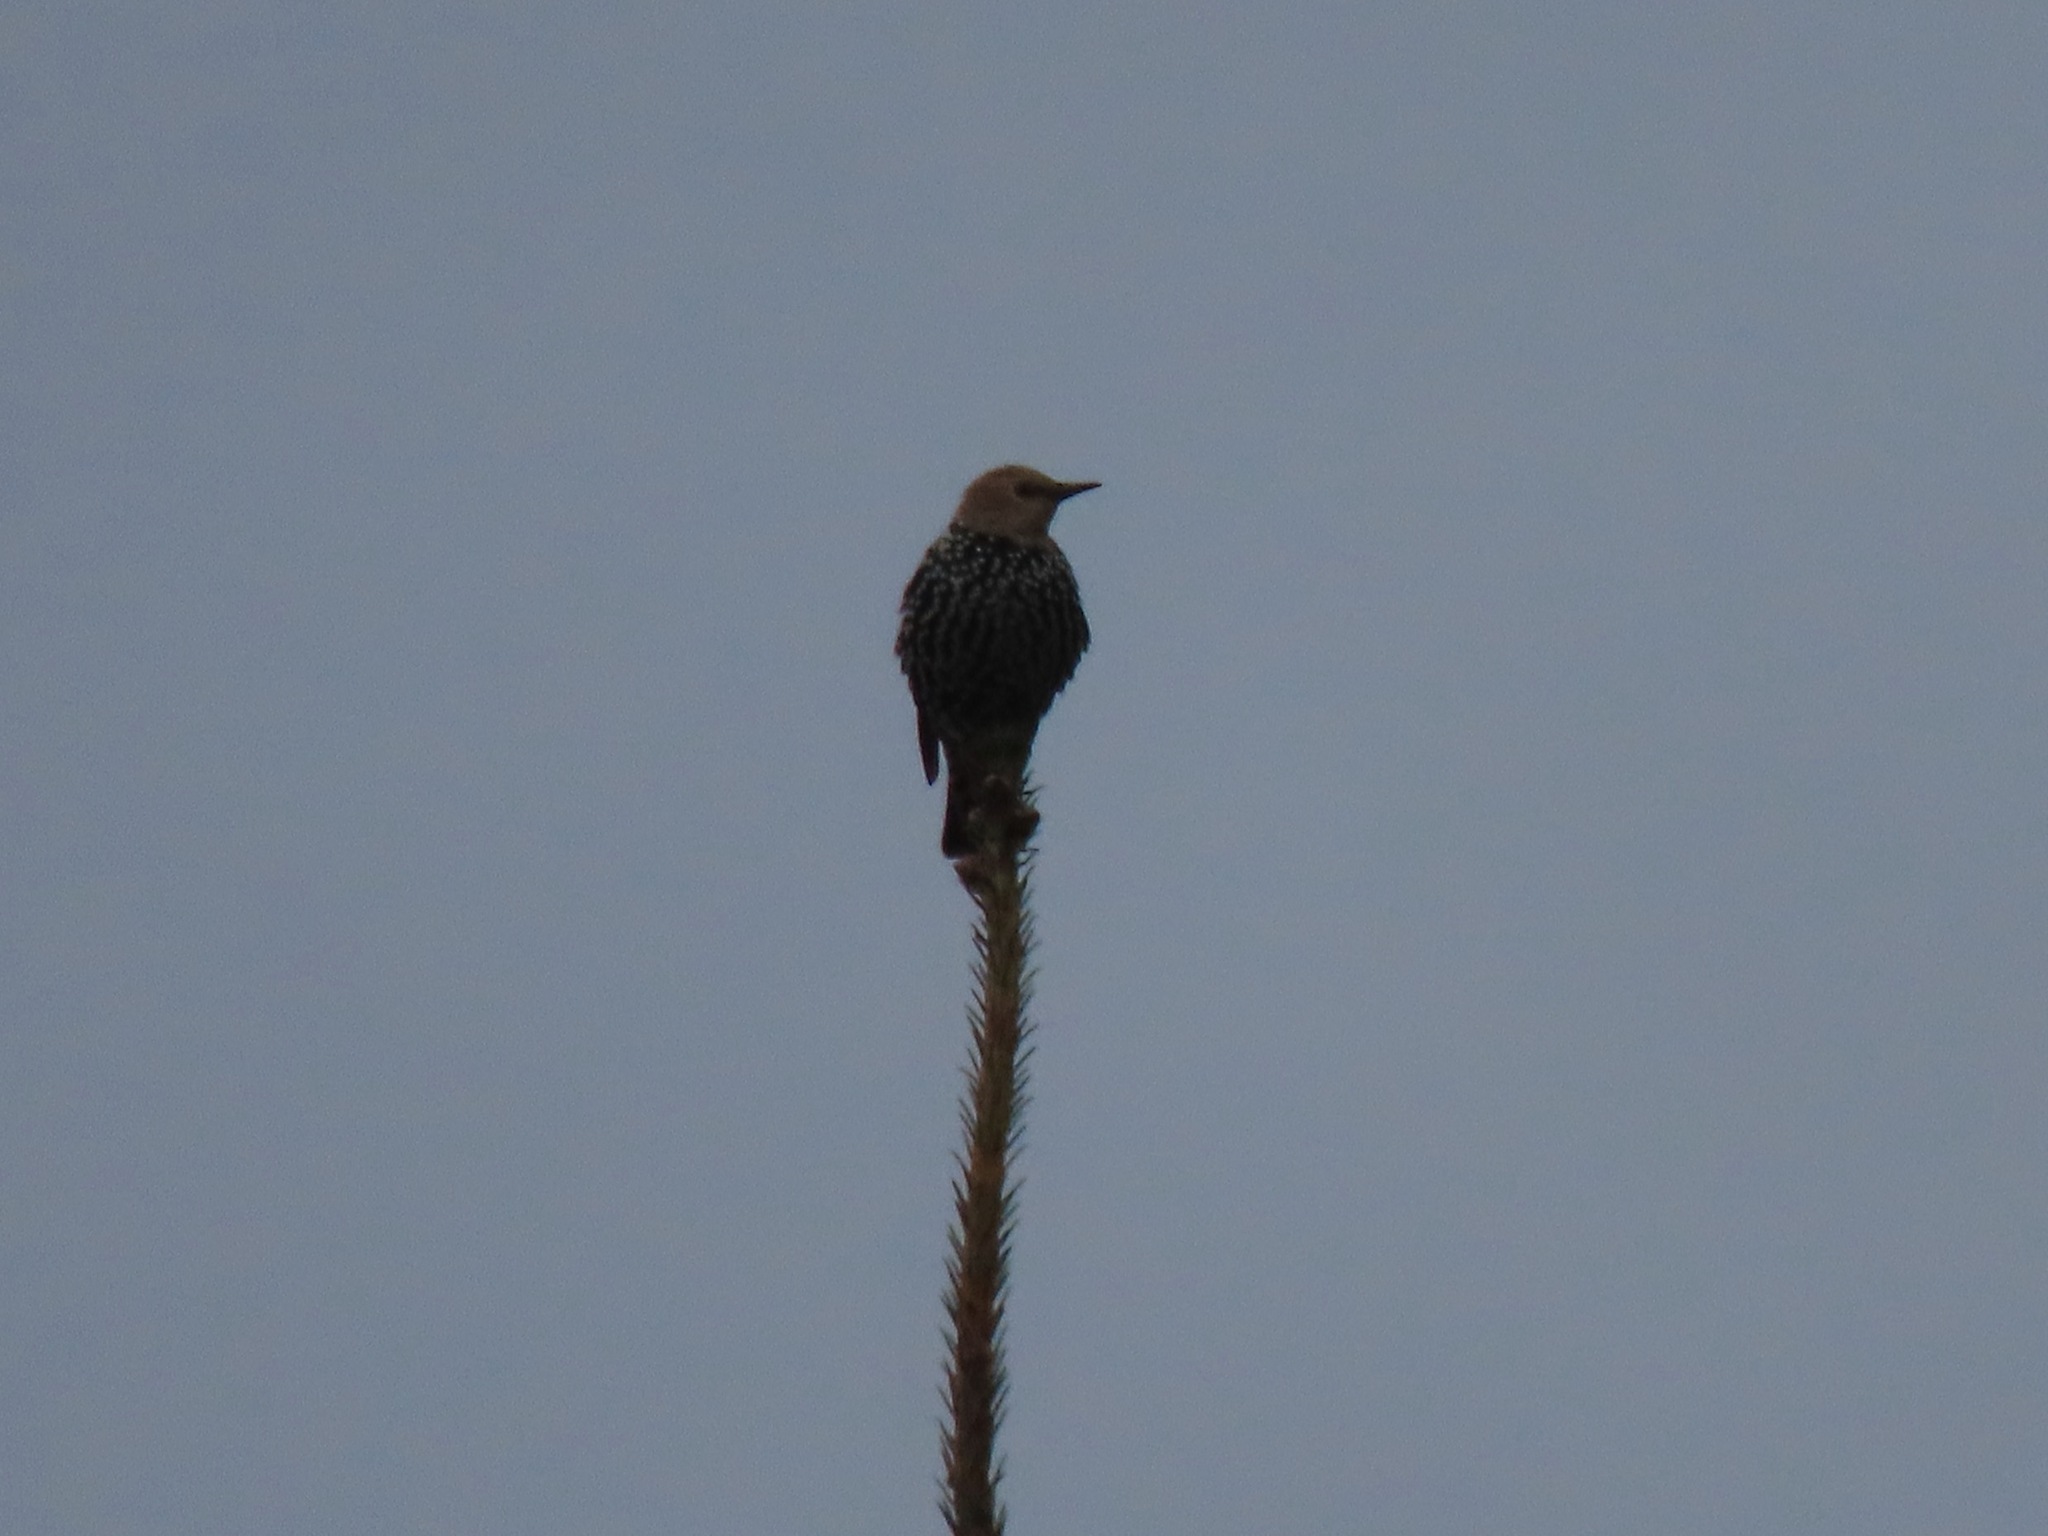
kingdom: Animalia
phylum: Chordata
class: Aves
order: Passeriformes
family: Sturnidae
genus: Sturnus
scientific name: Sturnus vulgaris
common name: Common starling
